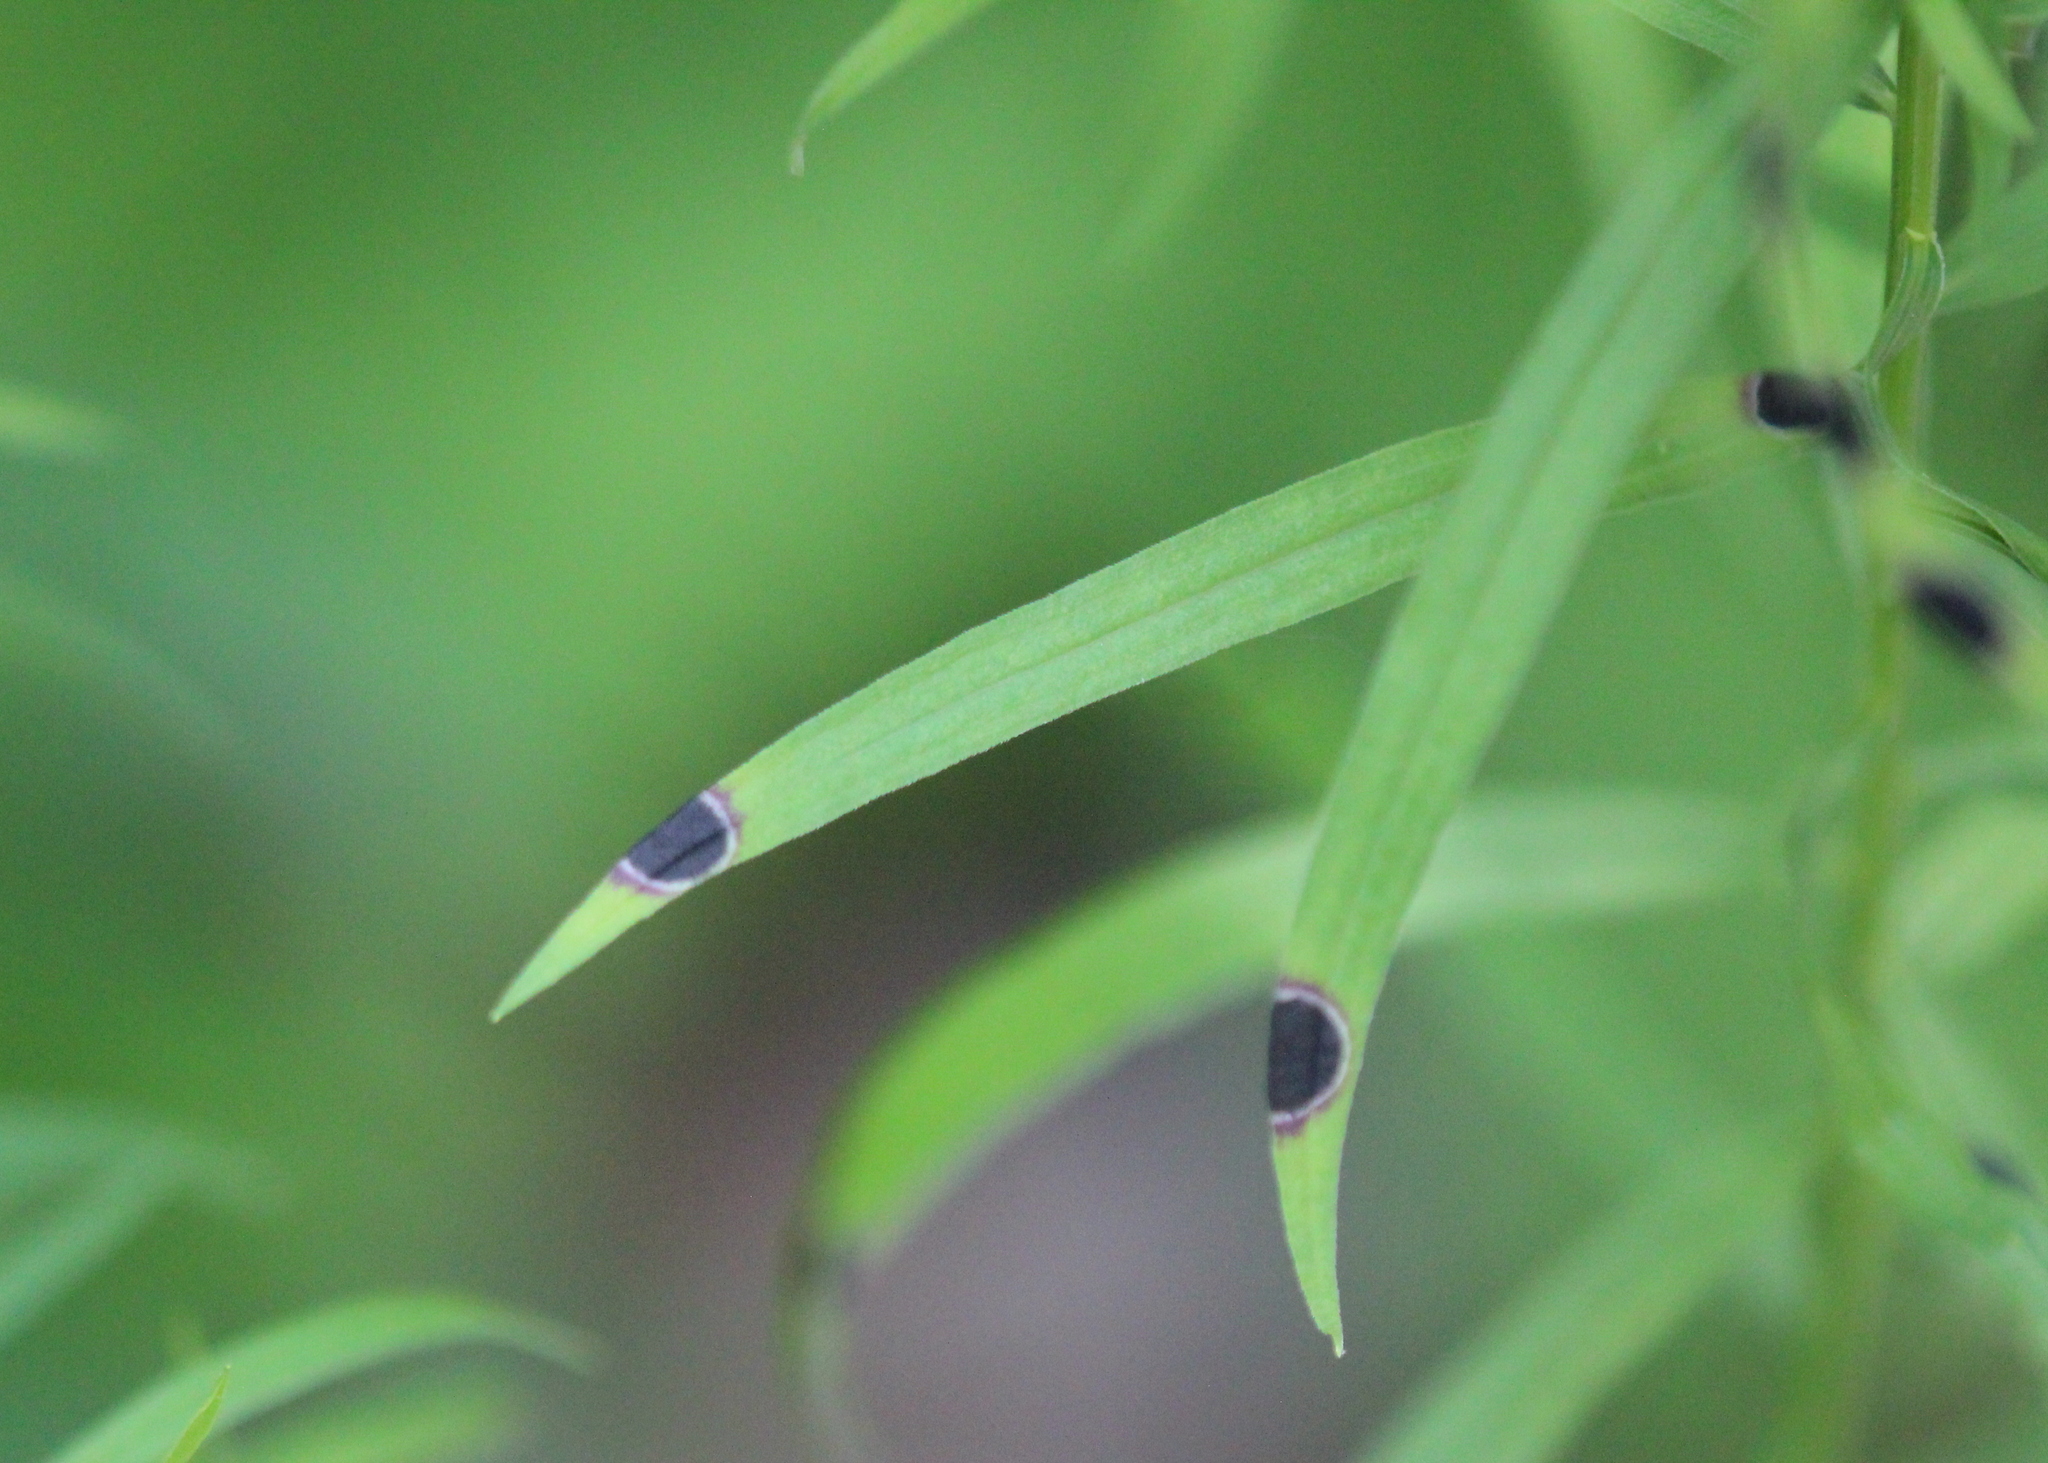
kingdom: Animalia
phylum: Arthropoda
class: Insecta
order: Diptera
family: Cecidomyiidae
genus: Asteromyia
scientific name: Asteromyia euthamiae
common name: Euthamia leaf gall midge
